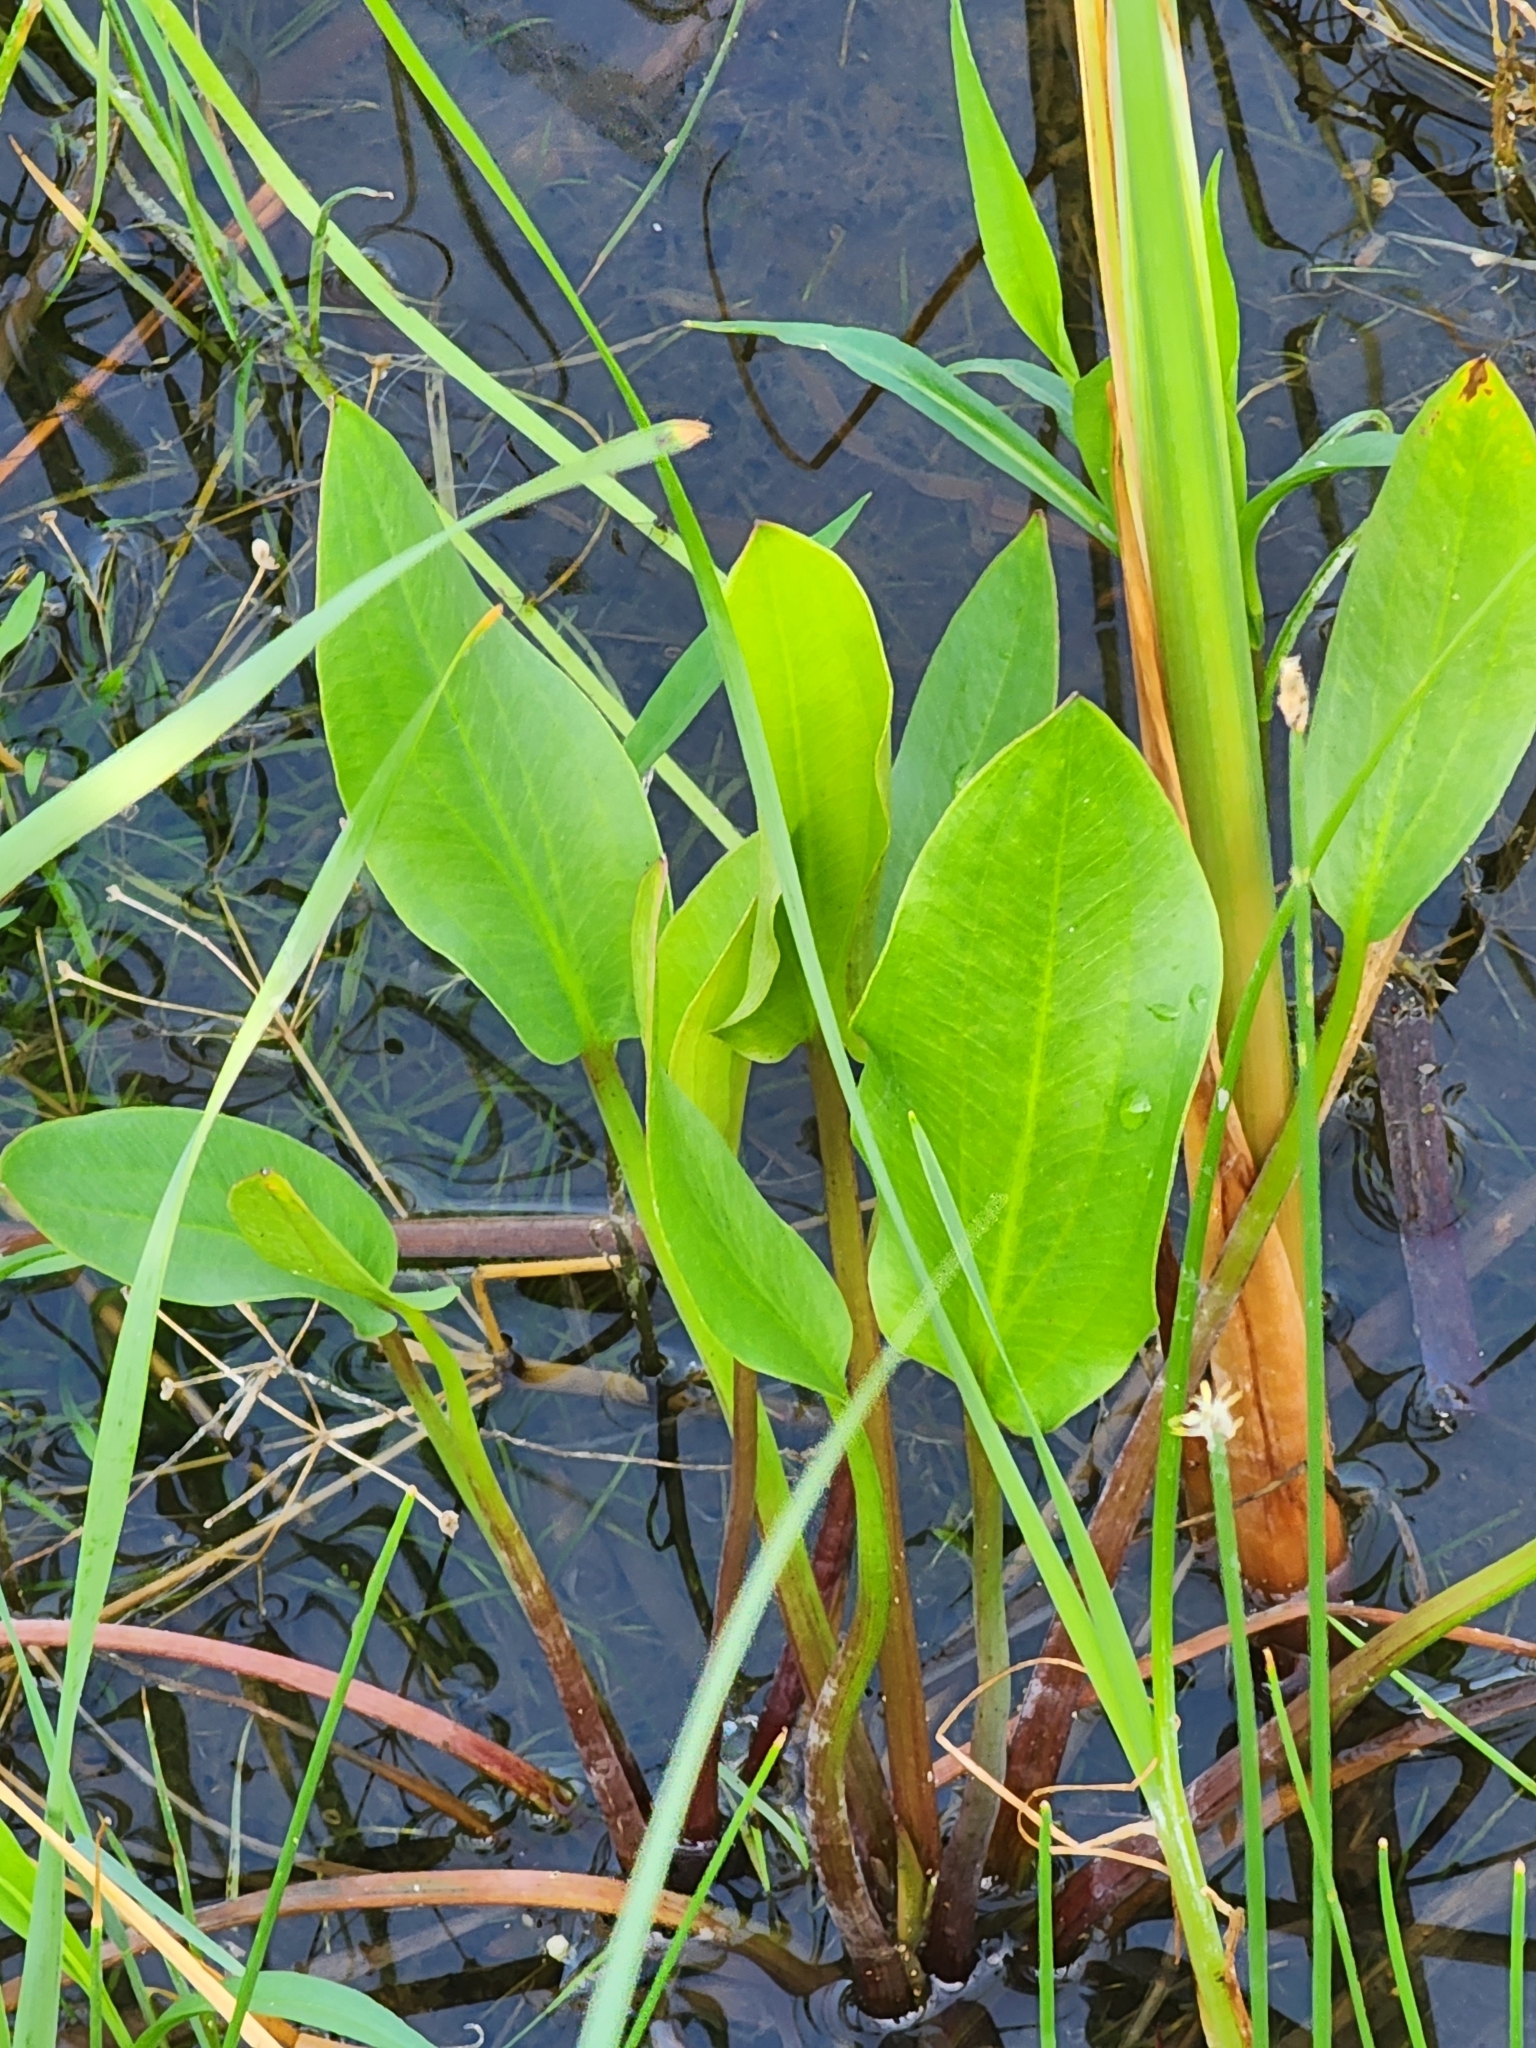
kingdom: Plantae
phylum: Tracheophyta
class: Liliopsida
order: Alismatales
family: Alismataceae
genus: Alisma
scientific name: Alisma triviale
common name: Northern water-plantain
